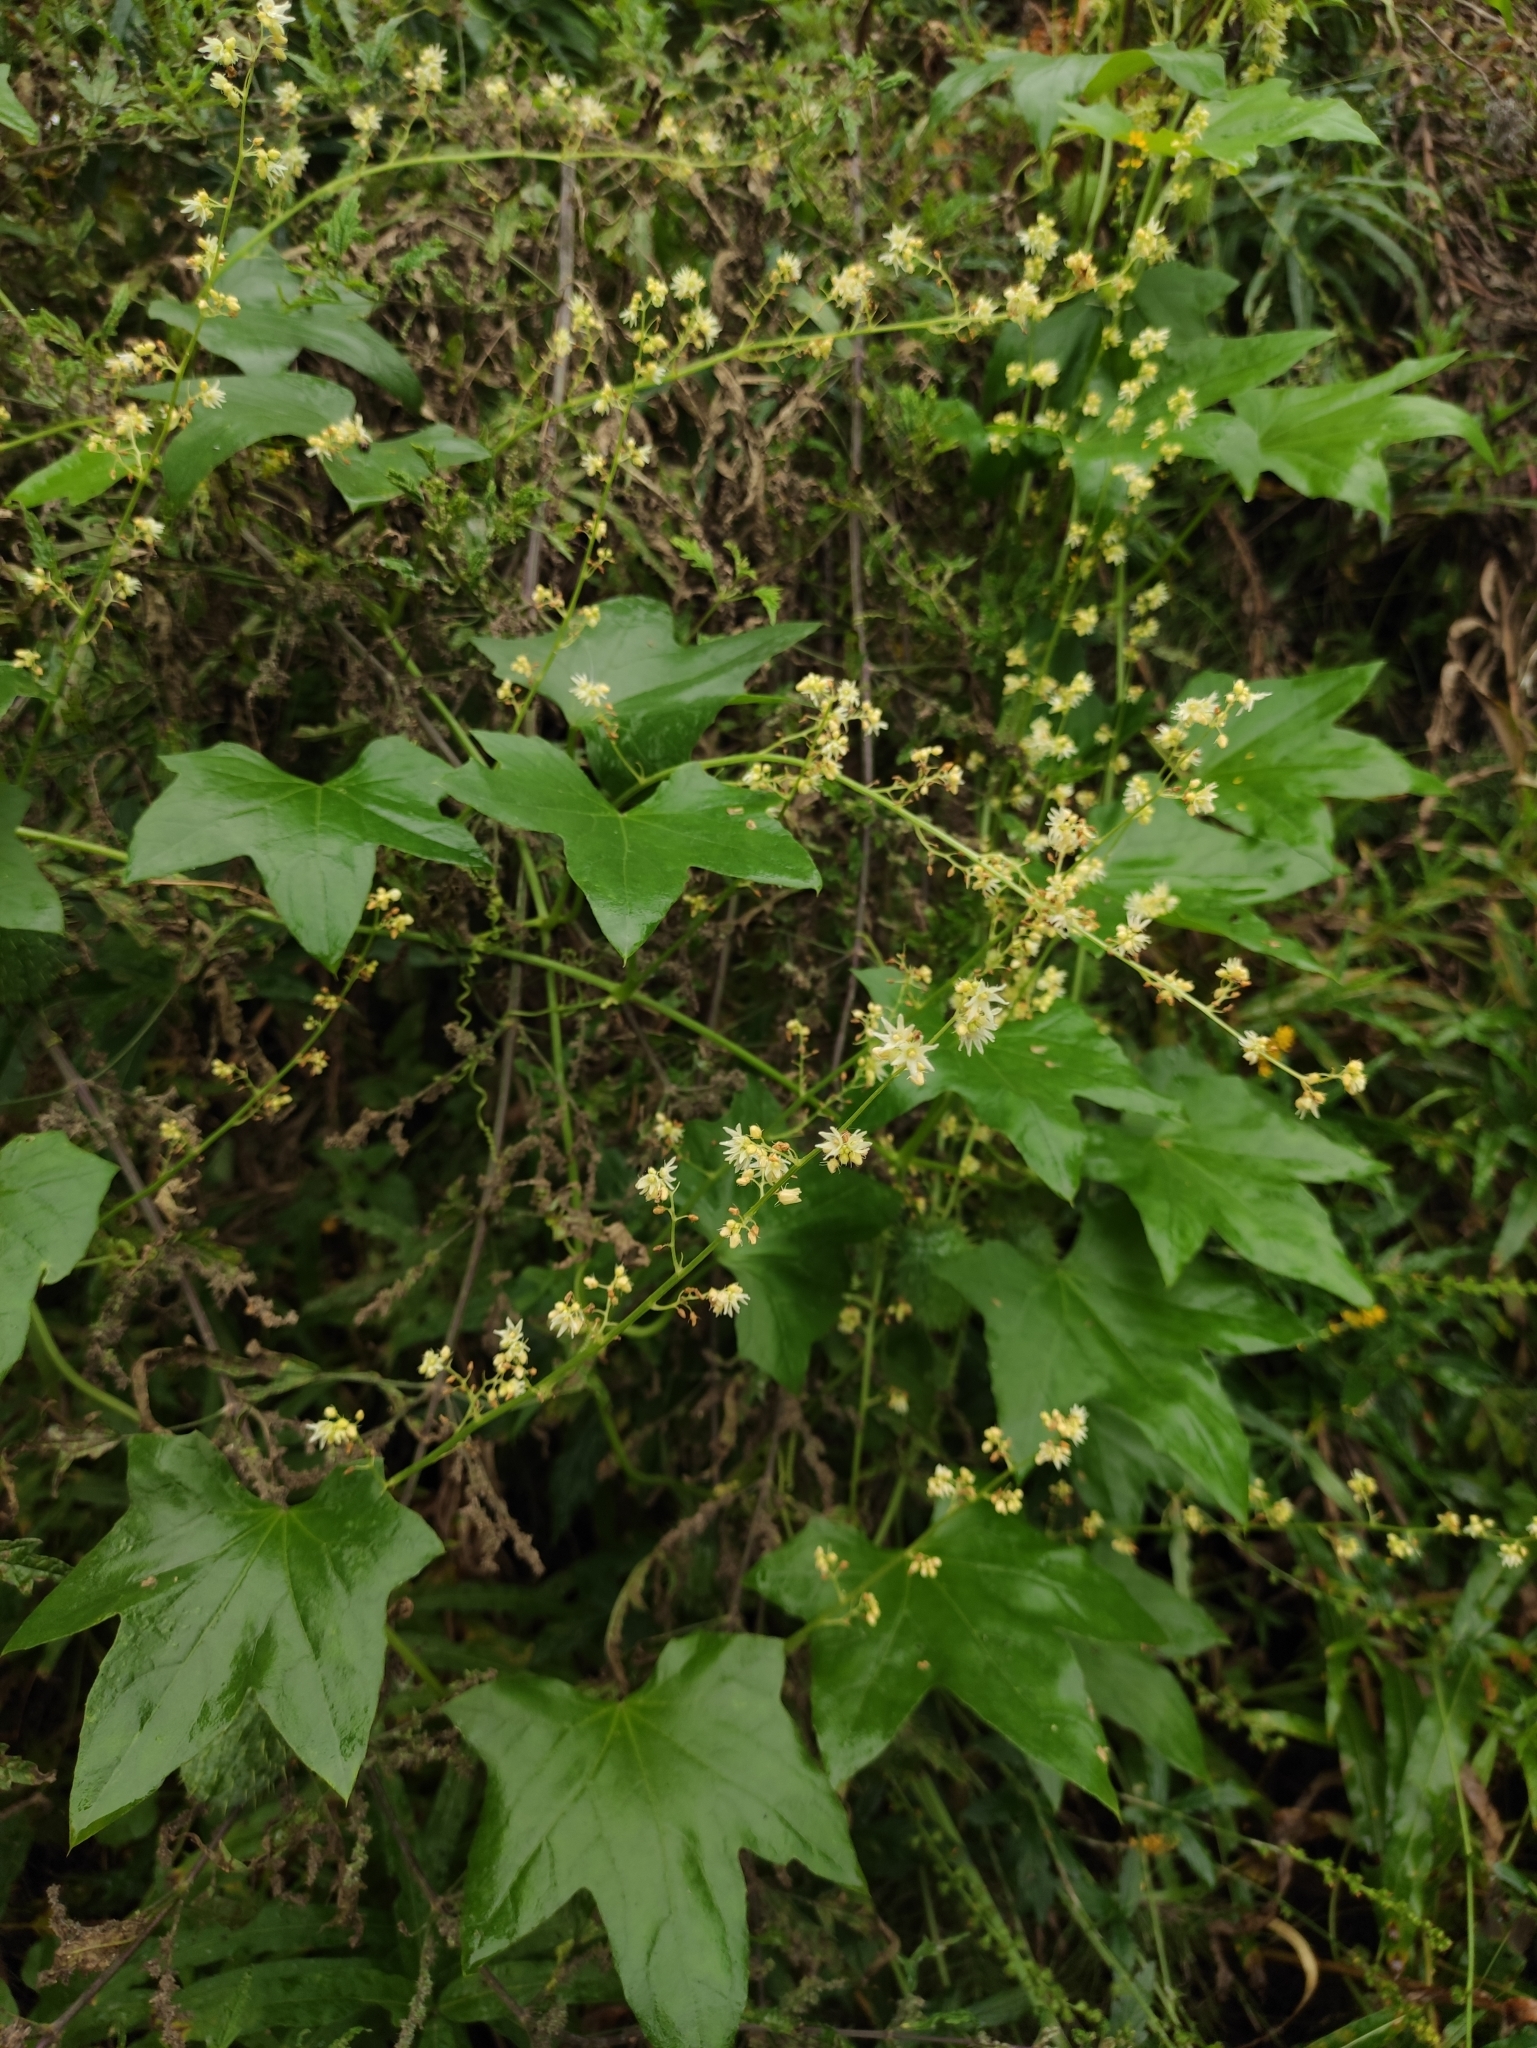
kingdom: Plantae
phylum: Tracheophyta
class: Magnoliopsida
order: Cucurbitales
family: Cucurbitaceae
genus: Echinocystis
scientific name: Echinocystis lobata
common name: Wild cucumber
